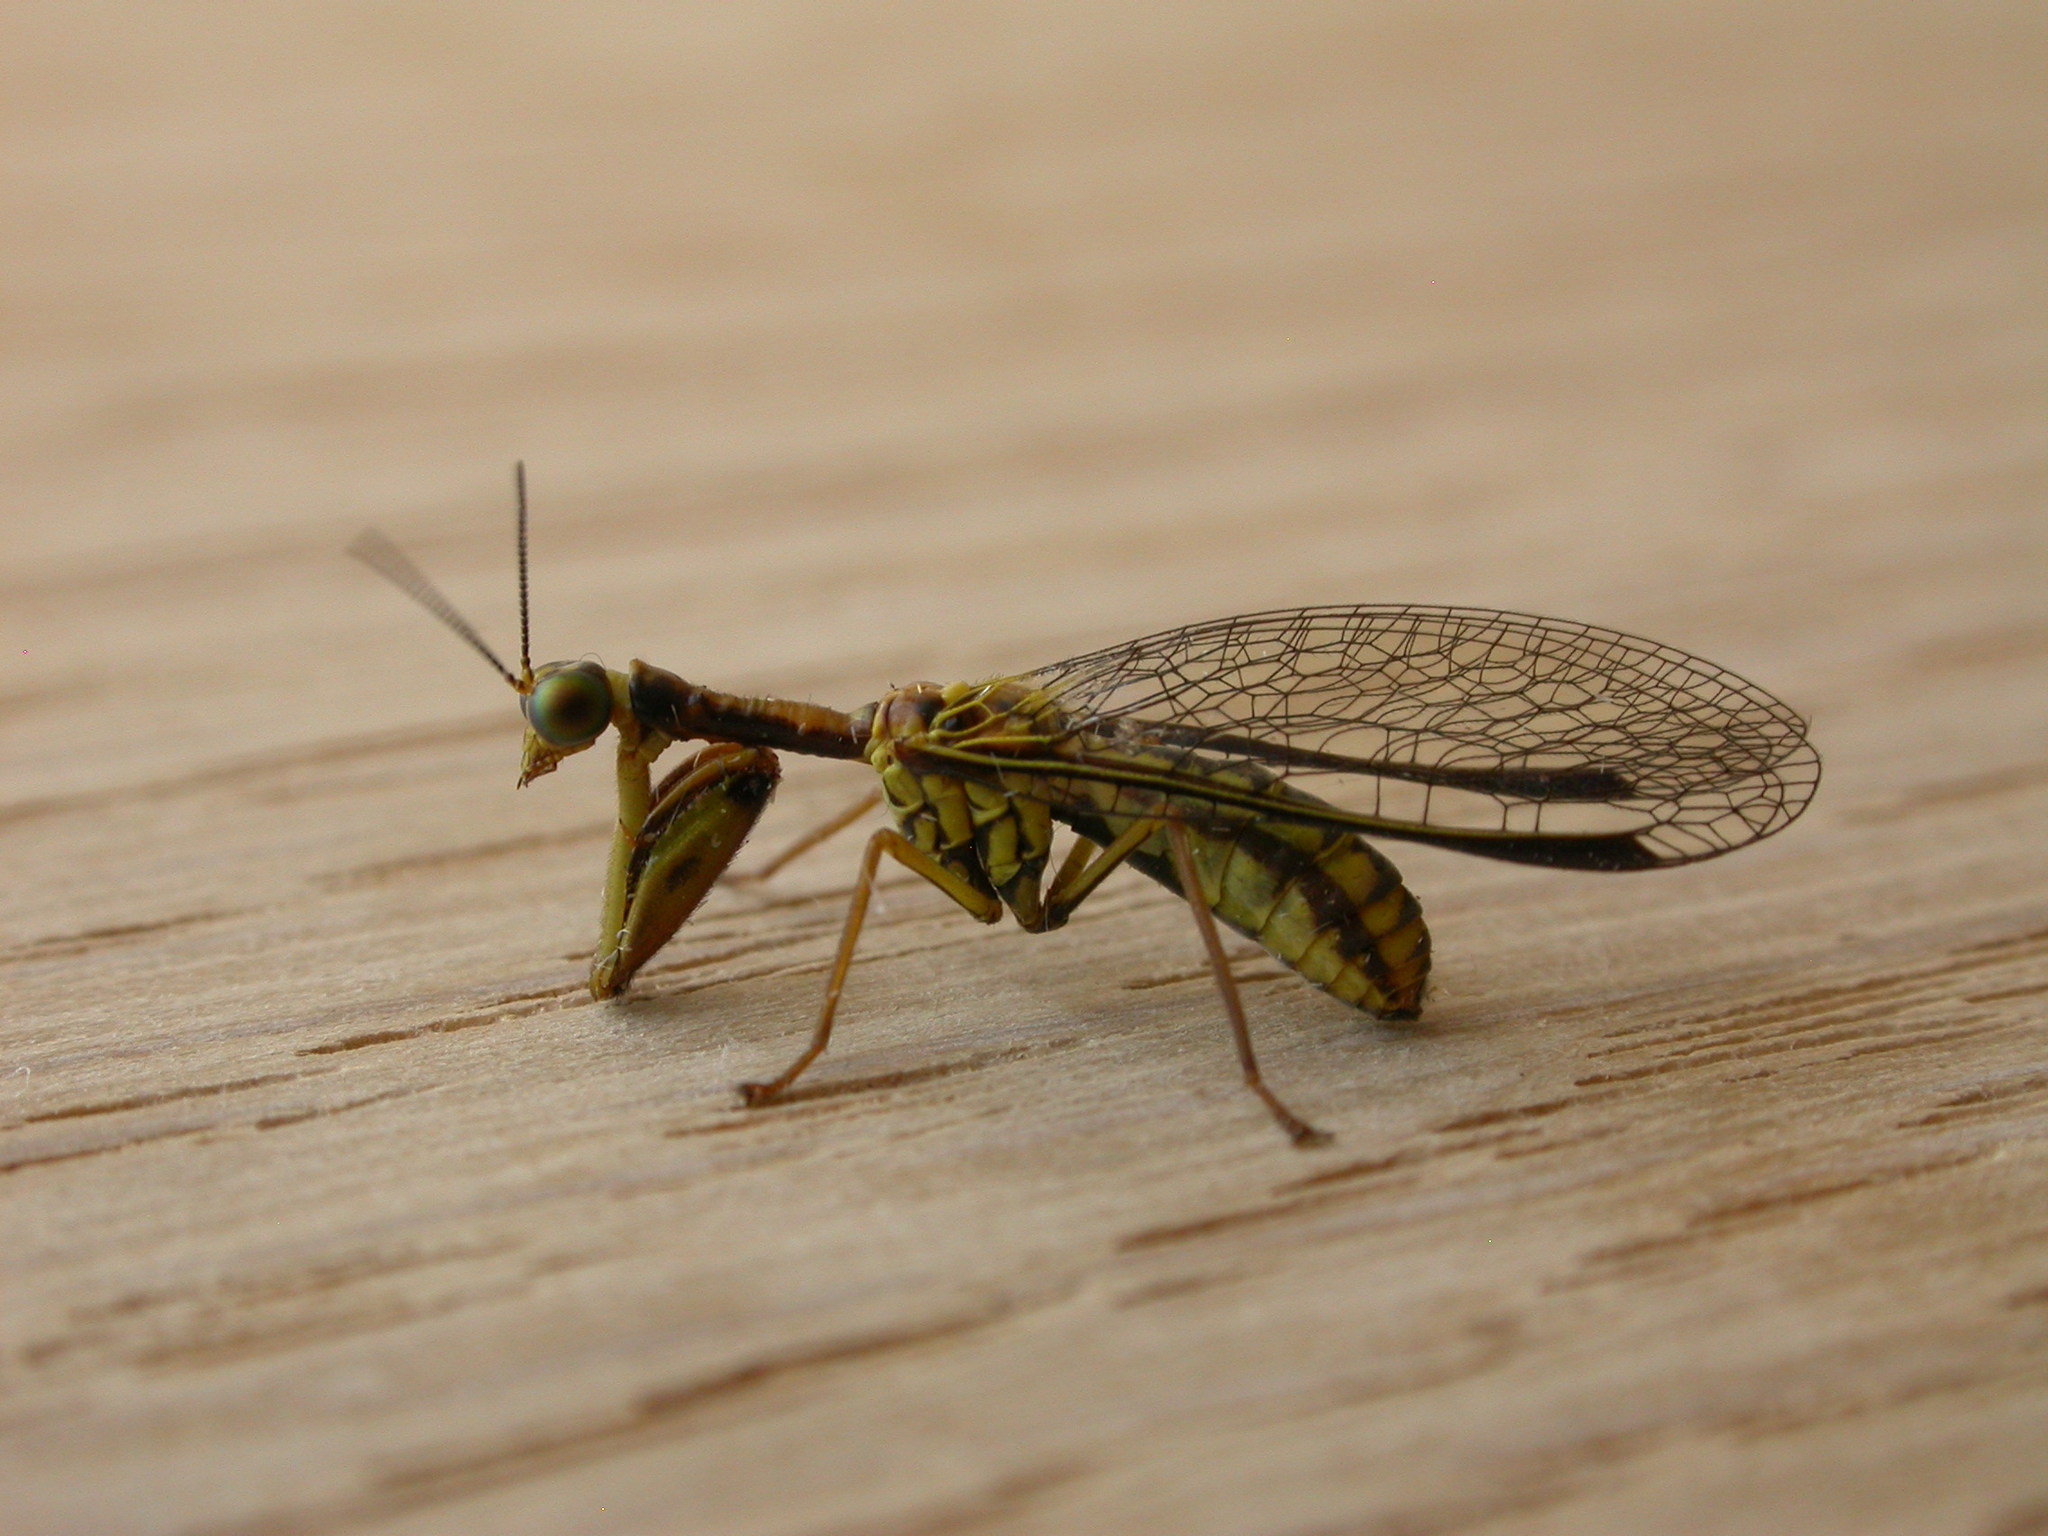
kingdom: Animalia
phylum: Arthropoda
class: Insecta
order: Neuroptera
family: Mantispidae
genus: Spaminta
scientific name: Spaminta minjerribae
